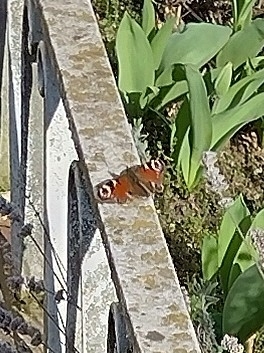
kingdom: Animalia
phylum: Arthropoda
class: Insecta
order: Lepidoptera
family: Nymphalidae
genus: Aglais
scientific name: Aglais io
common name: Peacock
